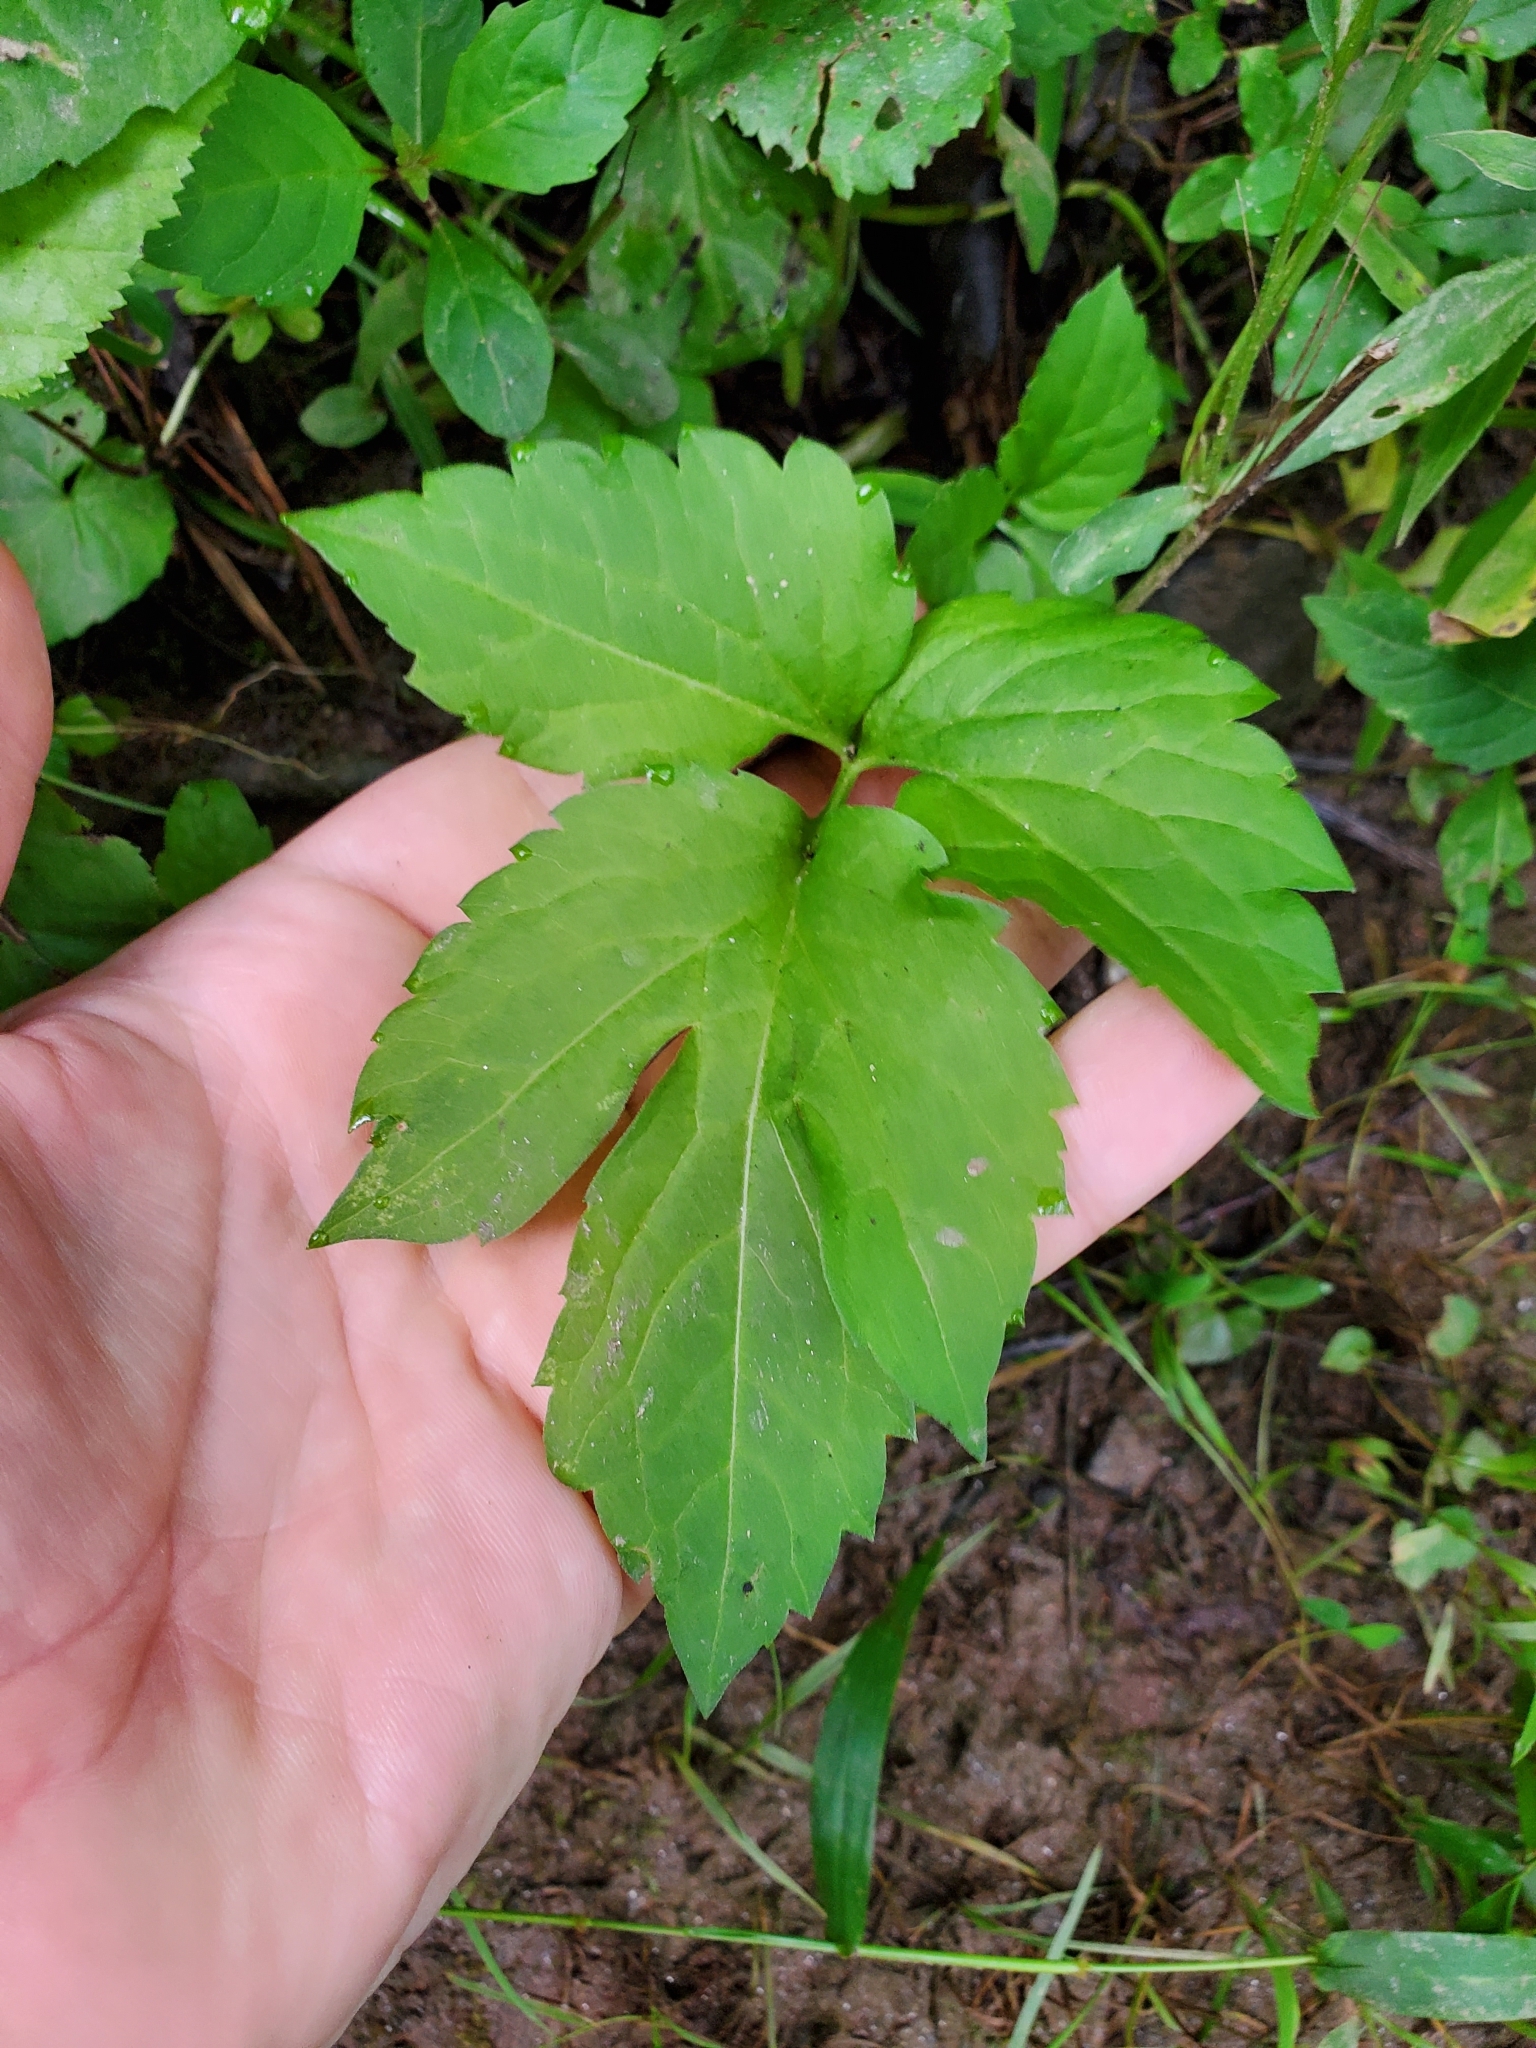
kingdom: Plantae
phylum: Tracheophyta
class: Magnoliopsida
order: Asterales
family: Asteraceae
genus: Rudbeckia
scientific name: Rudbeckia laciniata
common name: Coneflower
